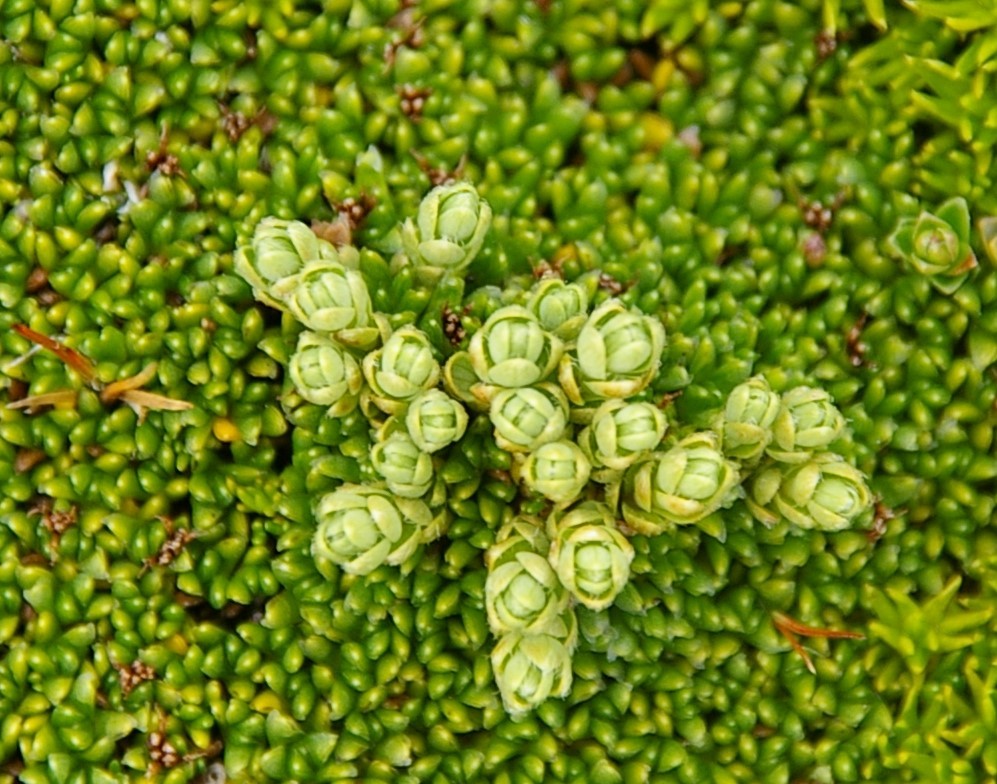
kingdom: Plantae
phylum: Tracheophyta
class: Magnoliopsida
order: Malvales
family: Thymelaeaceae
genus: Drapetes
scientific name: Drapetes muscosus
